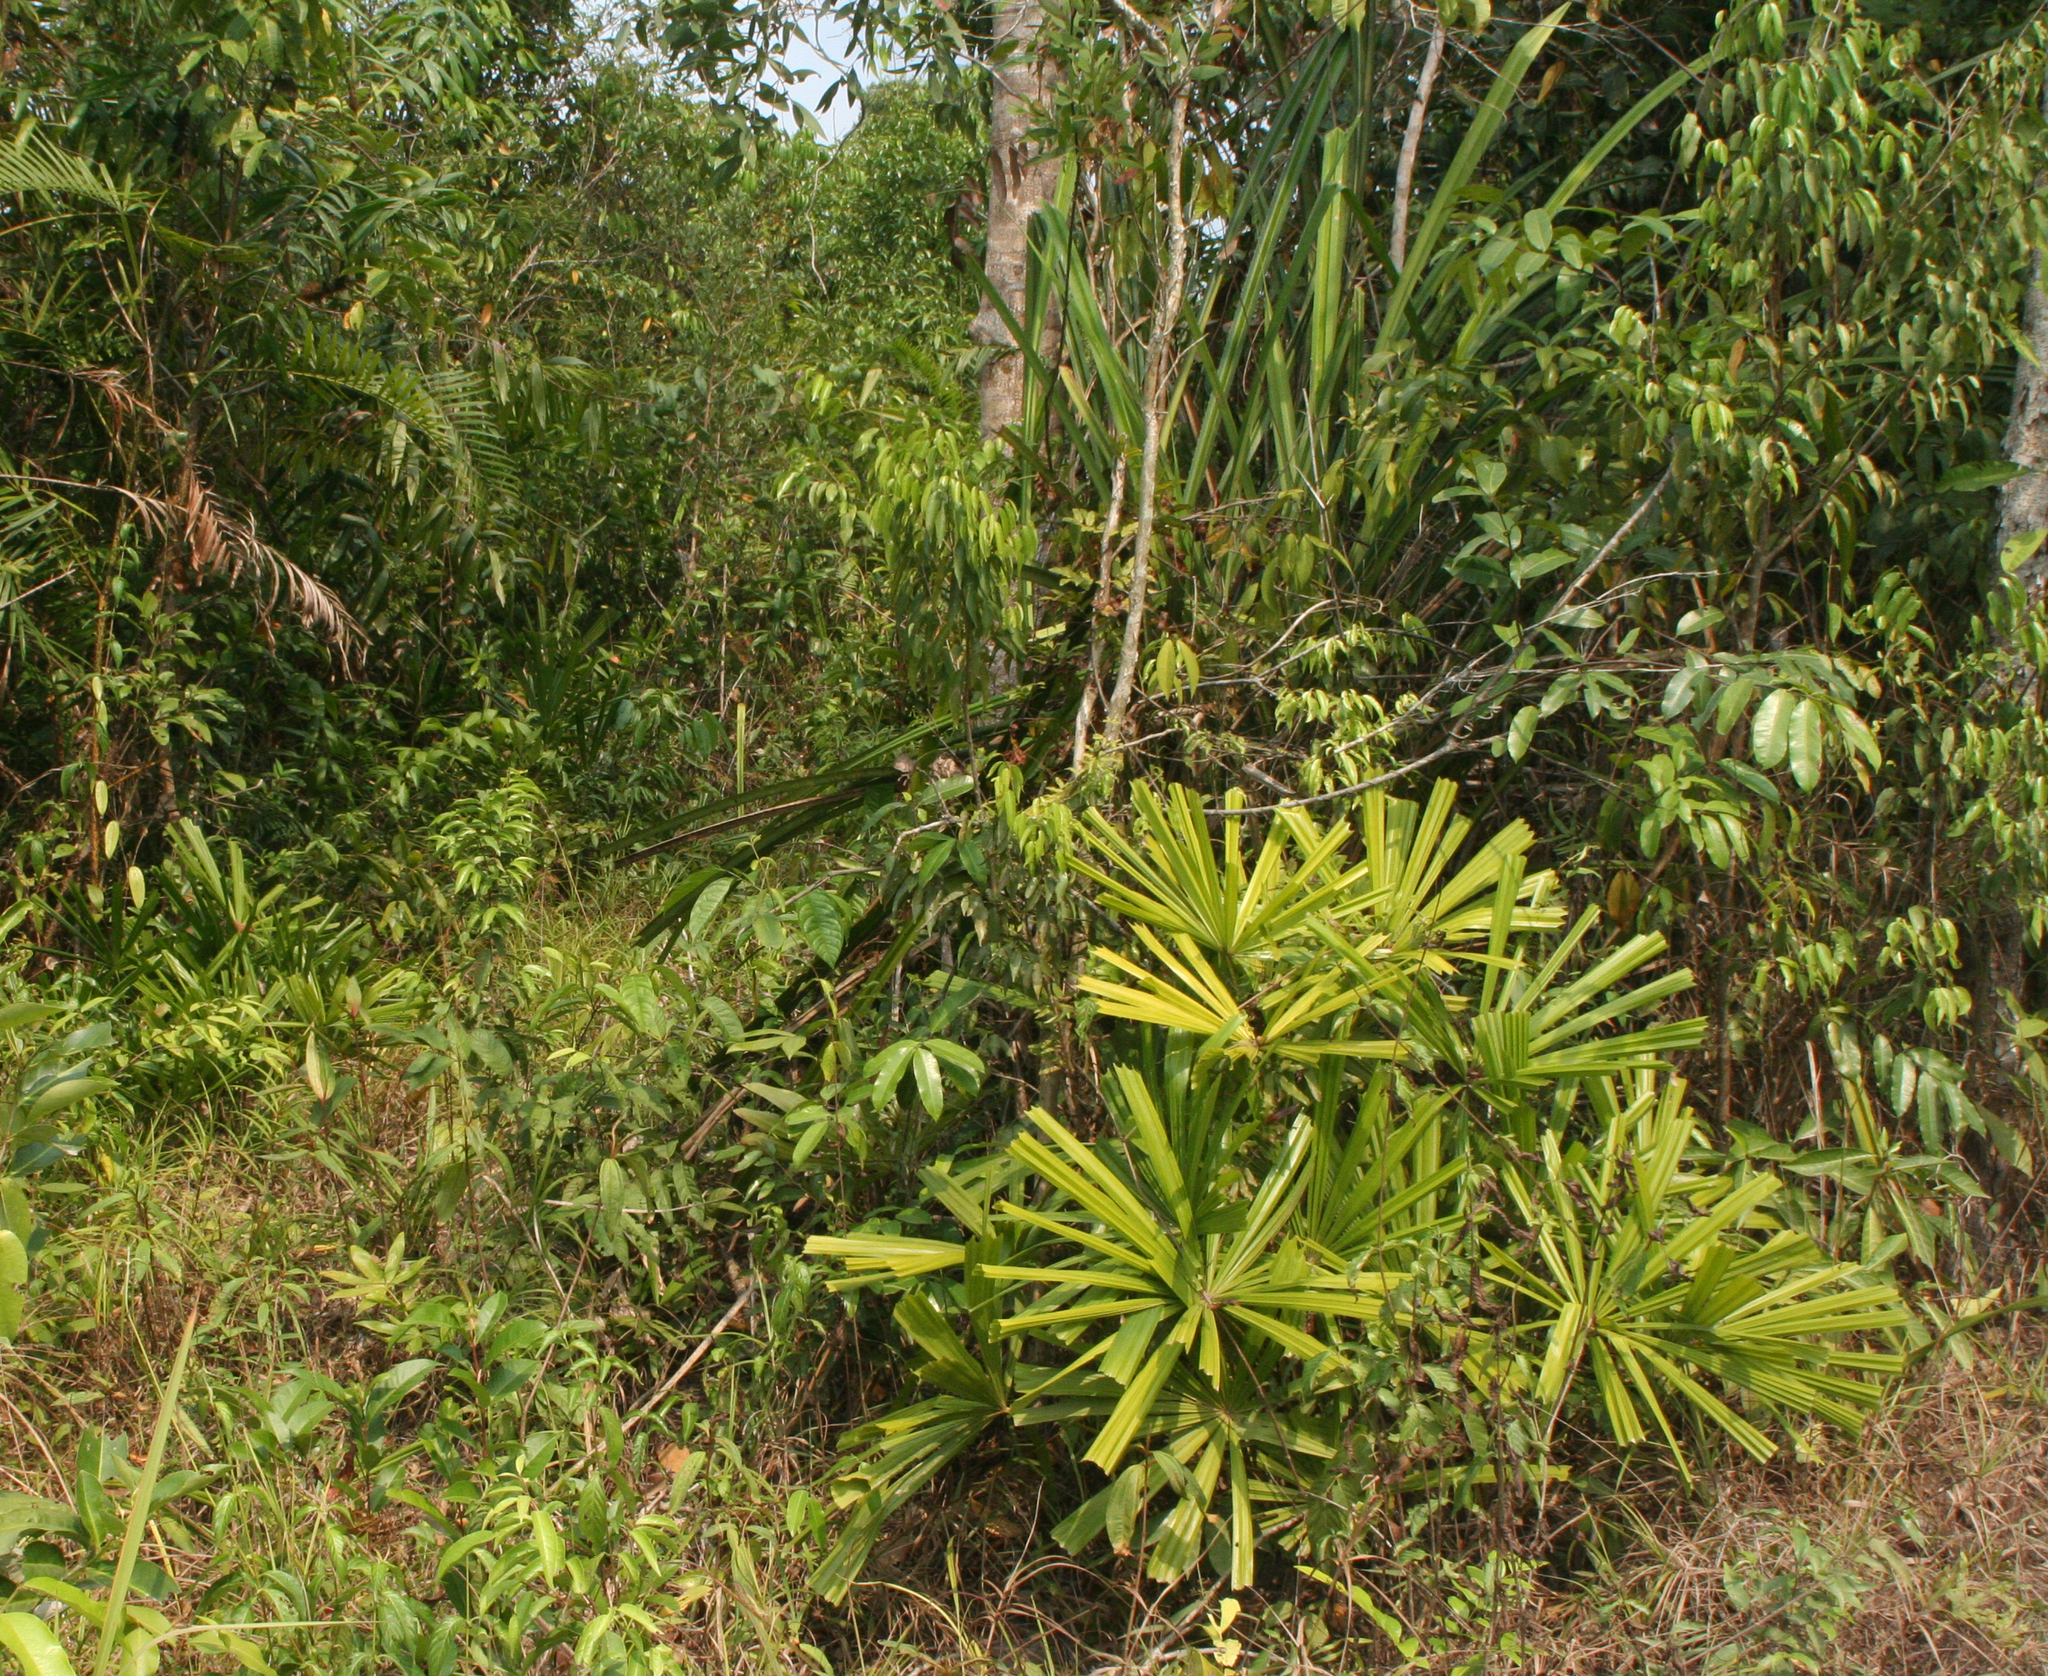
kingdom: Plantae
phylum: Tracheophyta
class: Liliopsida
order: Arecales
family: Arecaceae
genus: Licuala
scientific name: Licuala spinosa
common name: Mangrove fan palm
